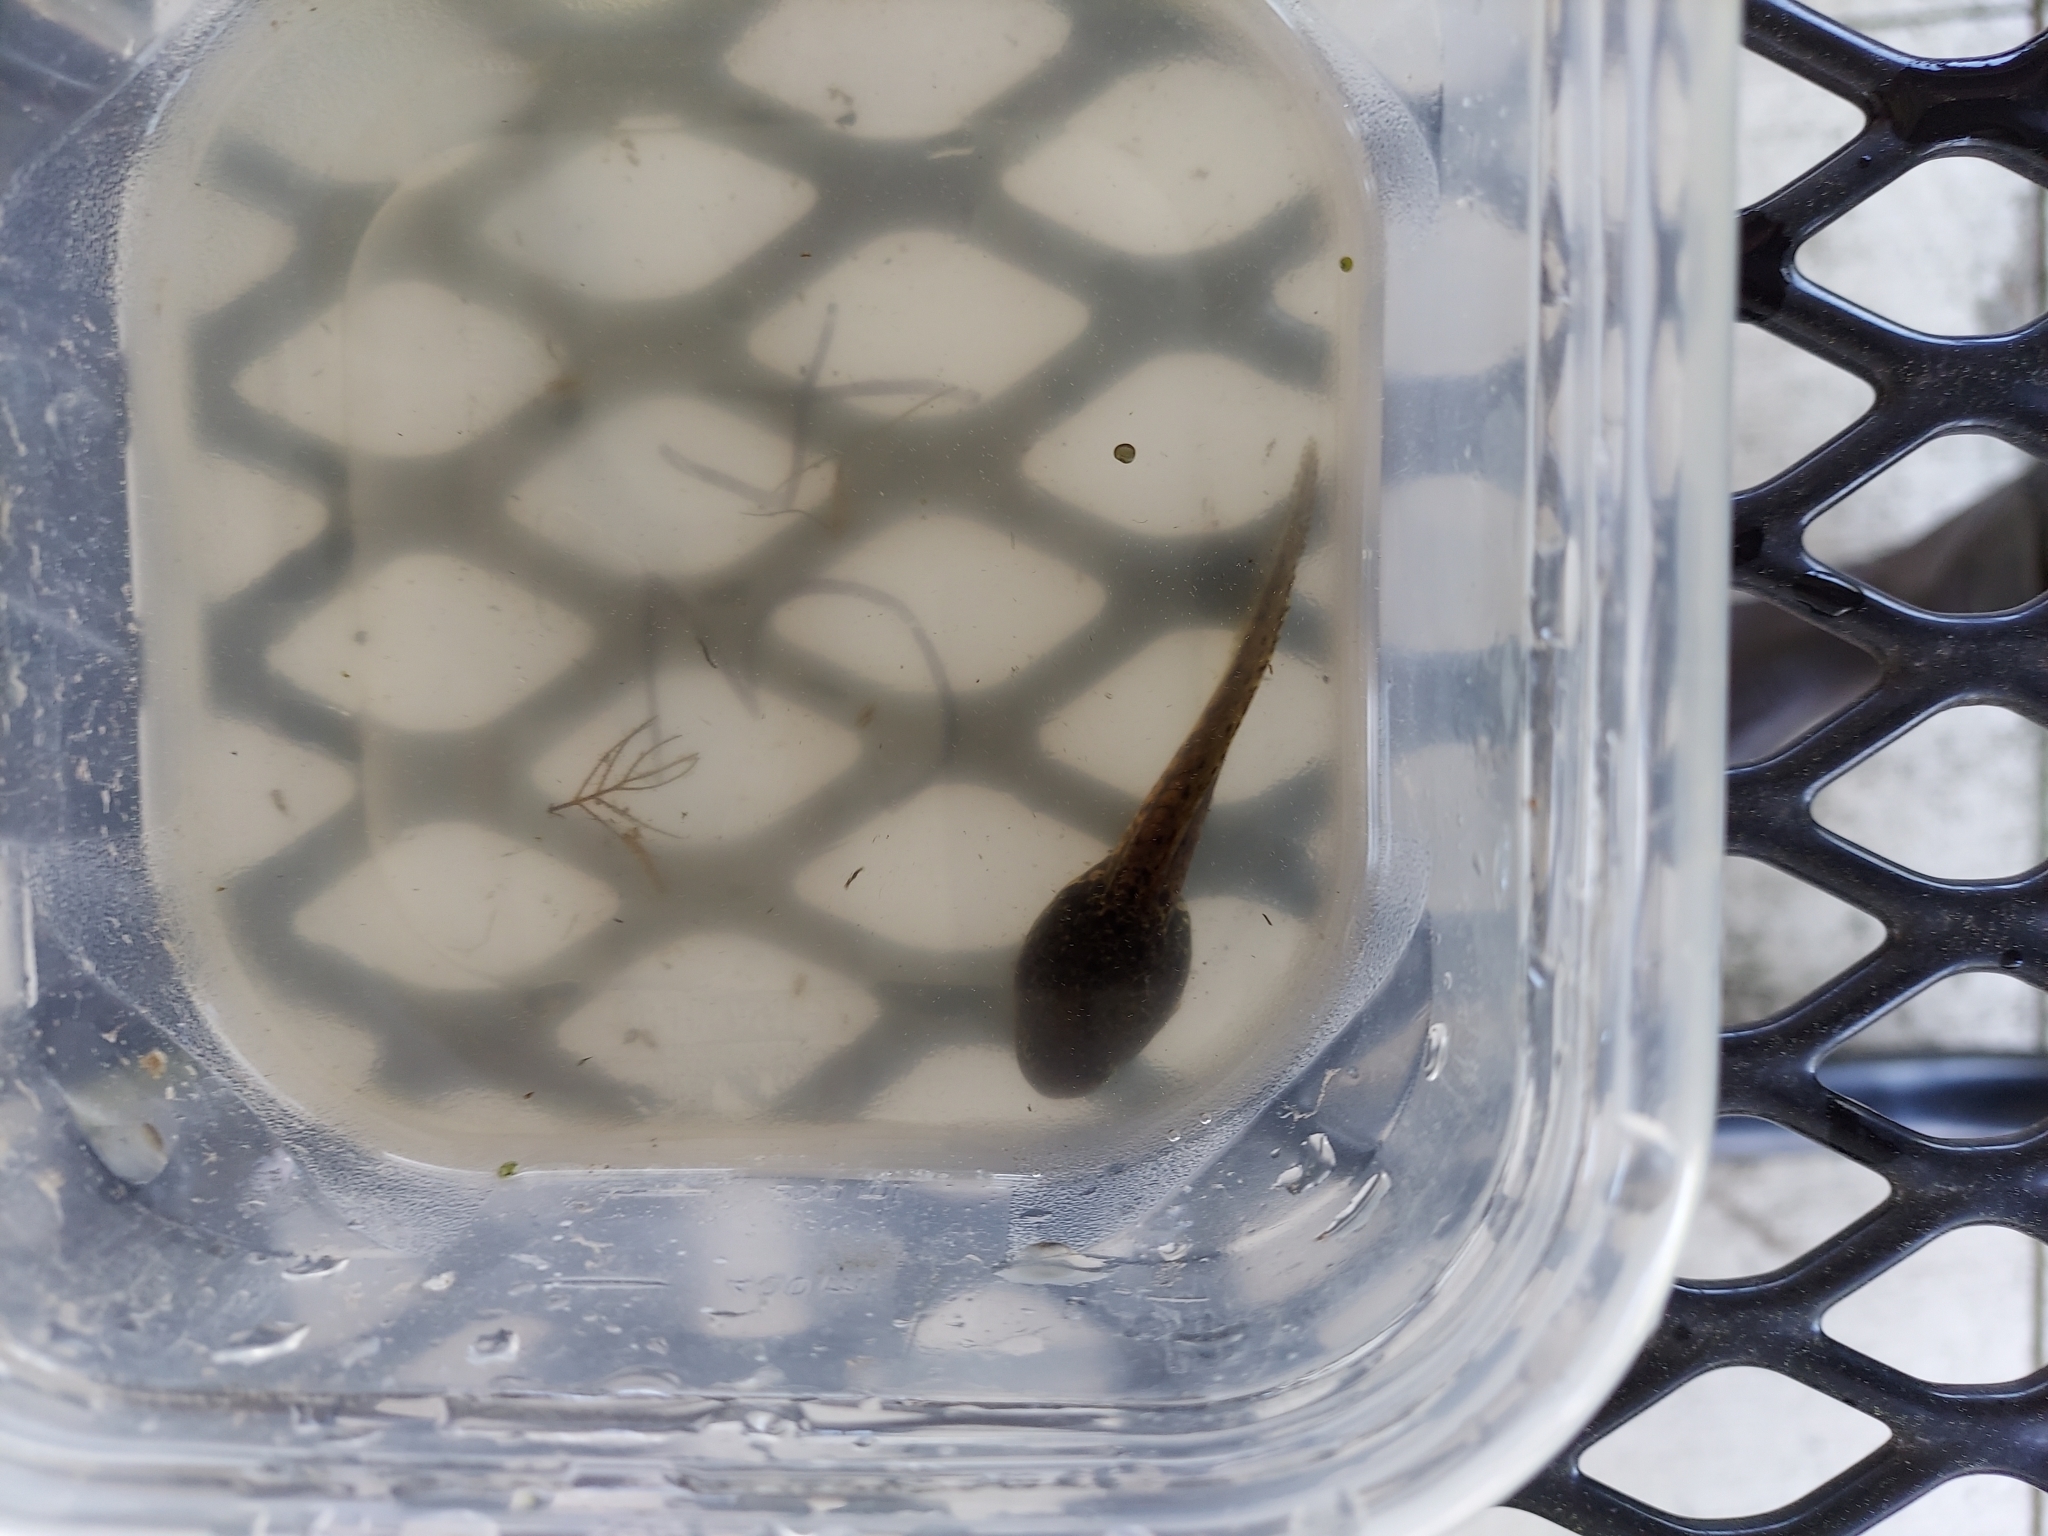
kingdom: Animalia
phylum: Chordata
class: Amphibia
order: Anura
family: Ranidae
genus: Lithobates
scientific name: Lithobates clamitans
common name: Green frog
